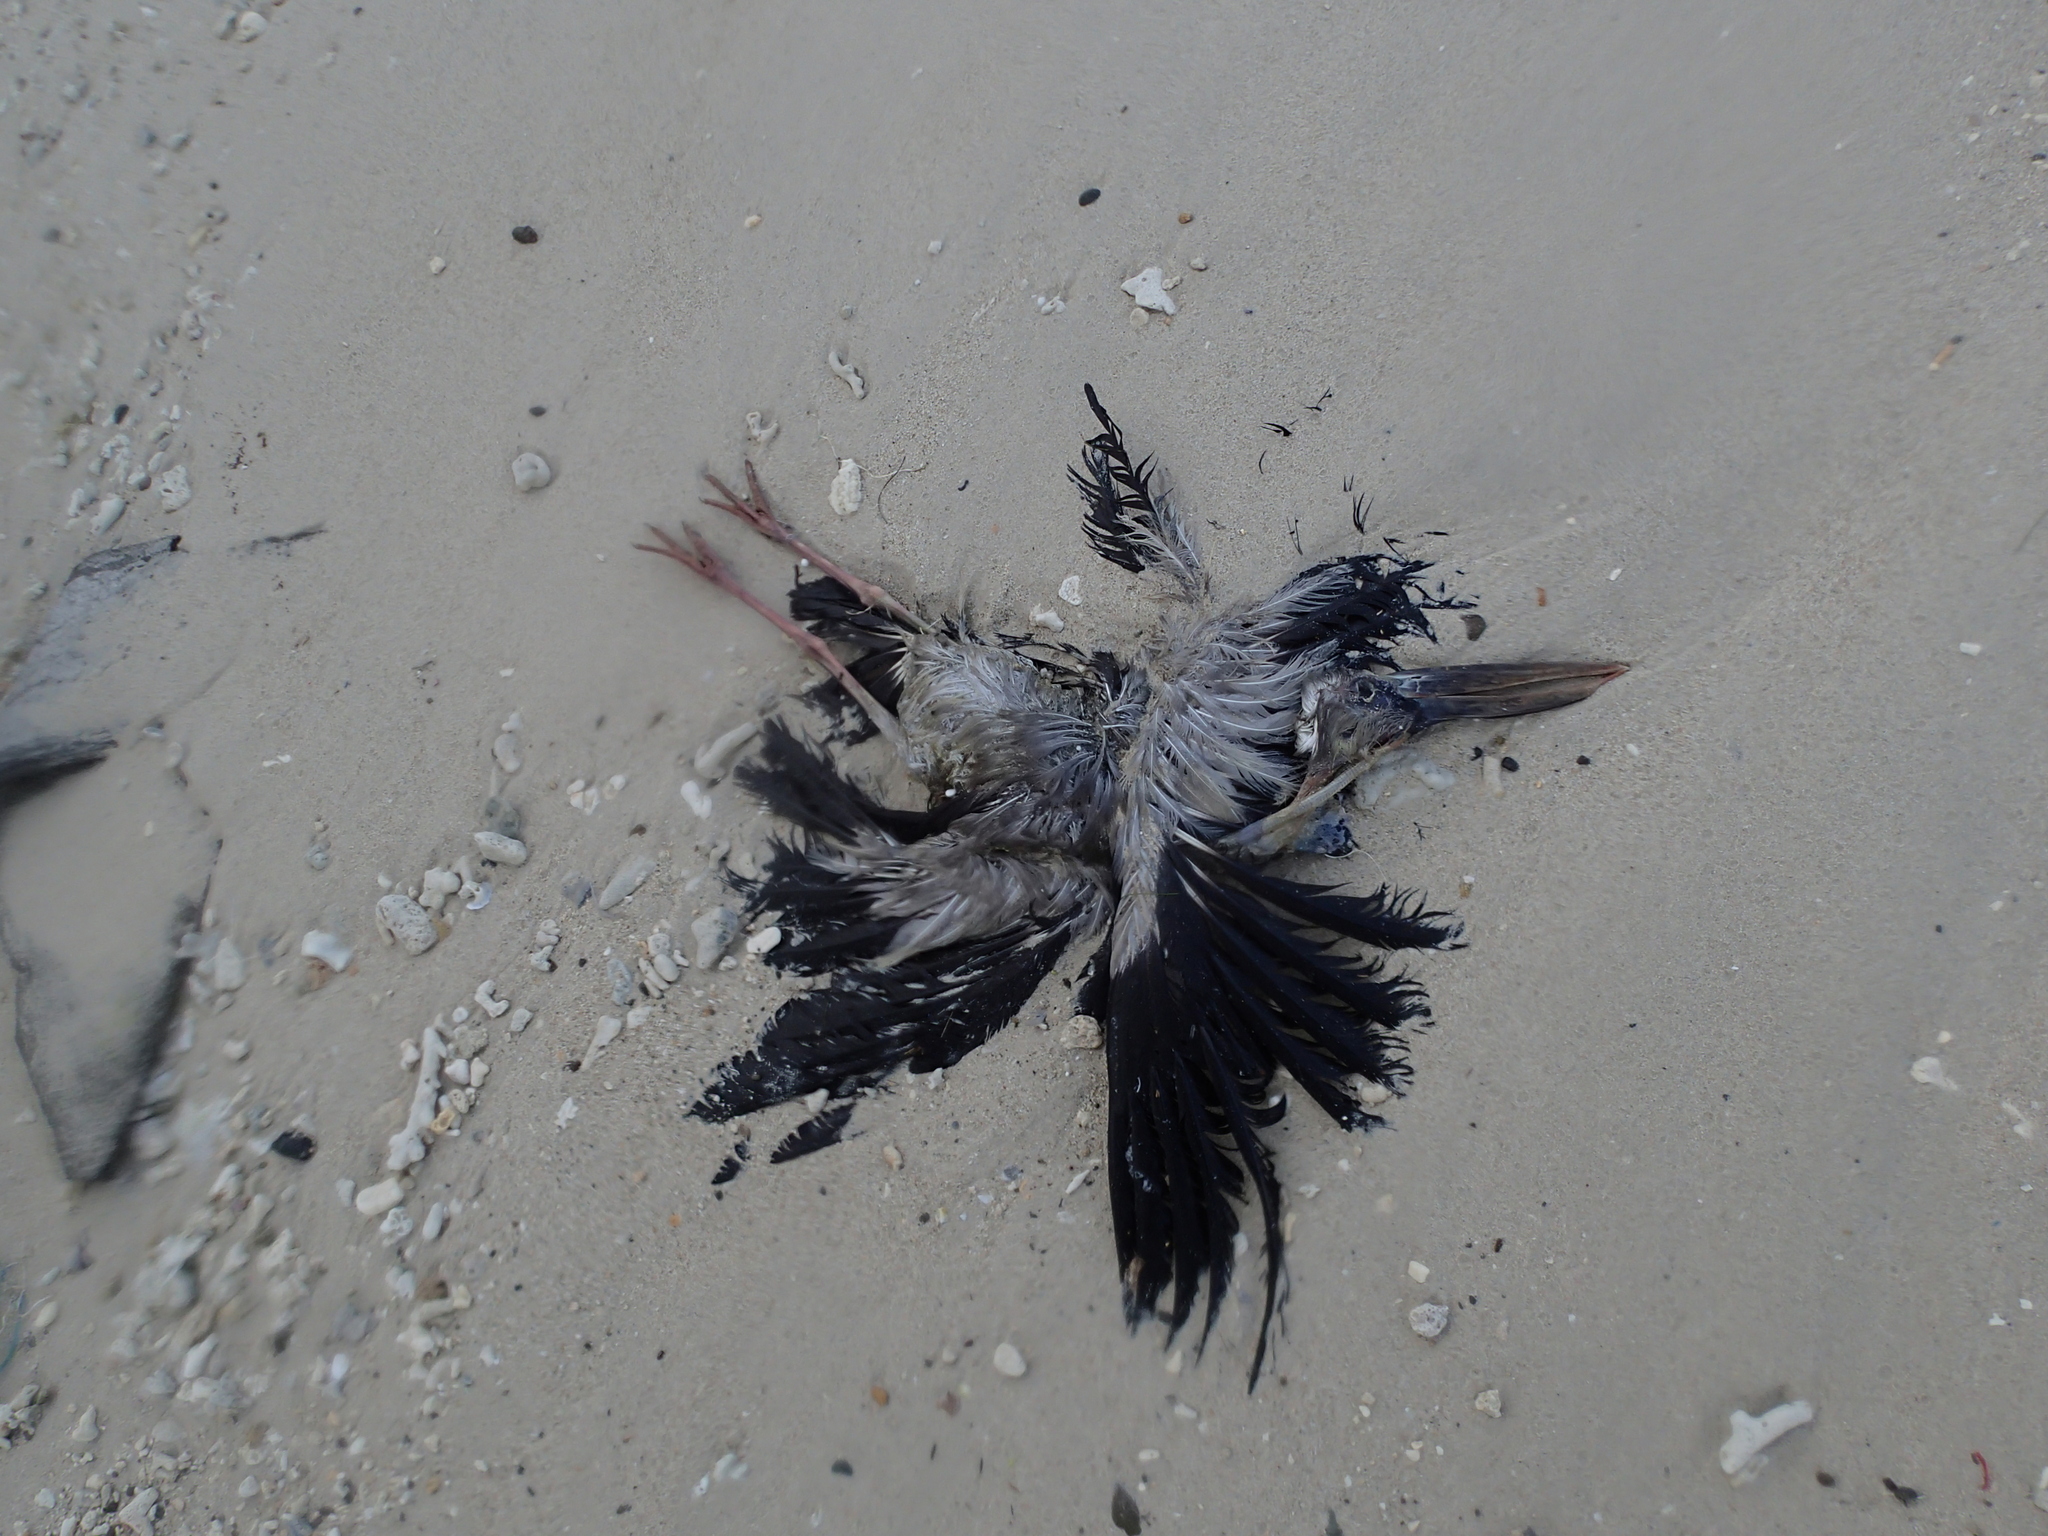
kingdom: Animalia
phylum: Chordata
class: Aves
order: Ciconiiformes
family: Ciconiidae
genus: Anastomus
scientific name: Anastomus oscitans
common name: Asian openbill
